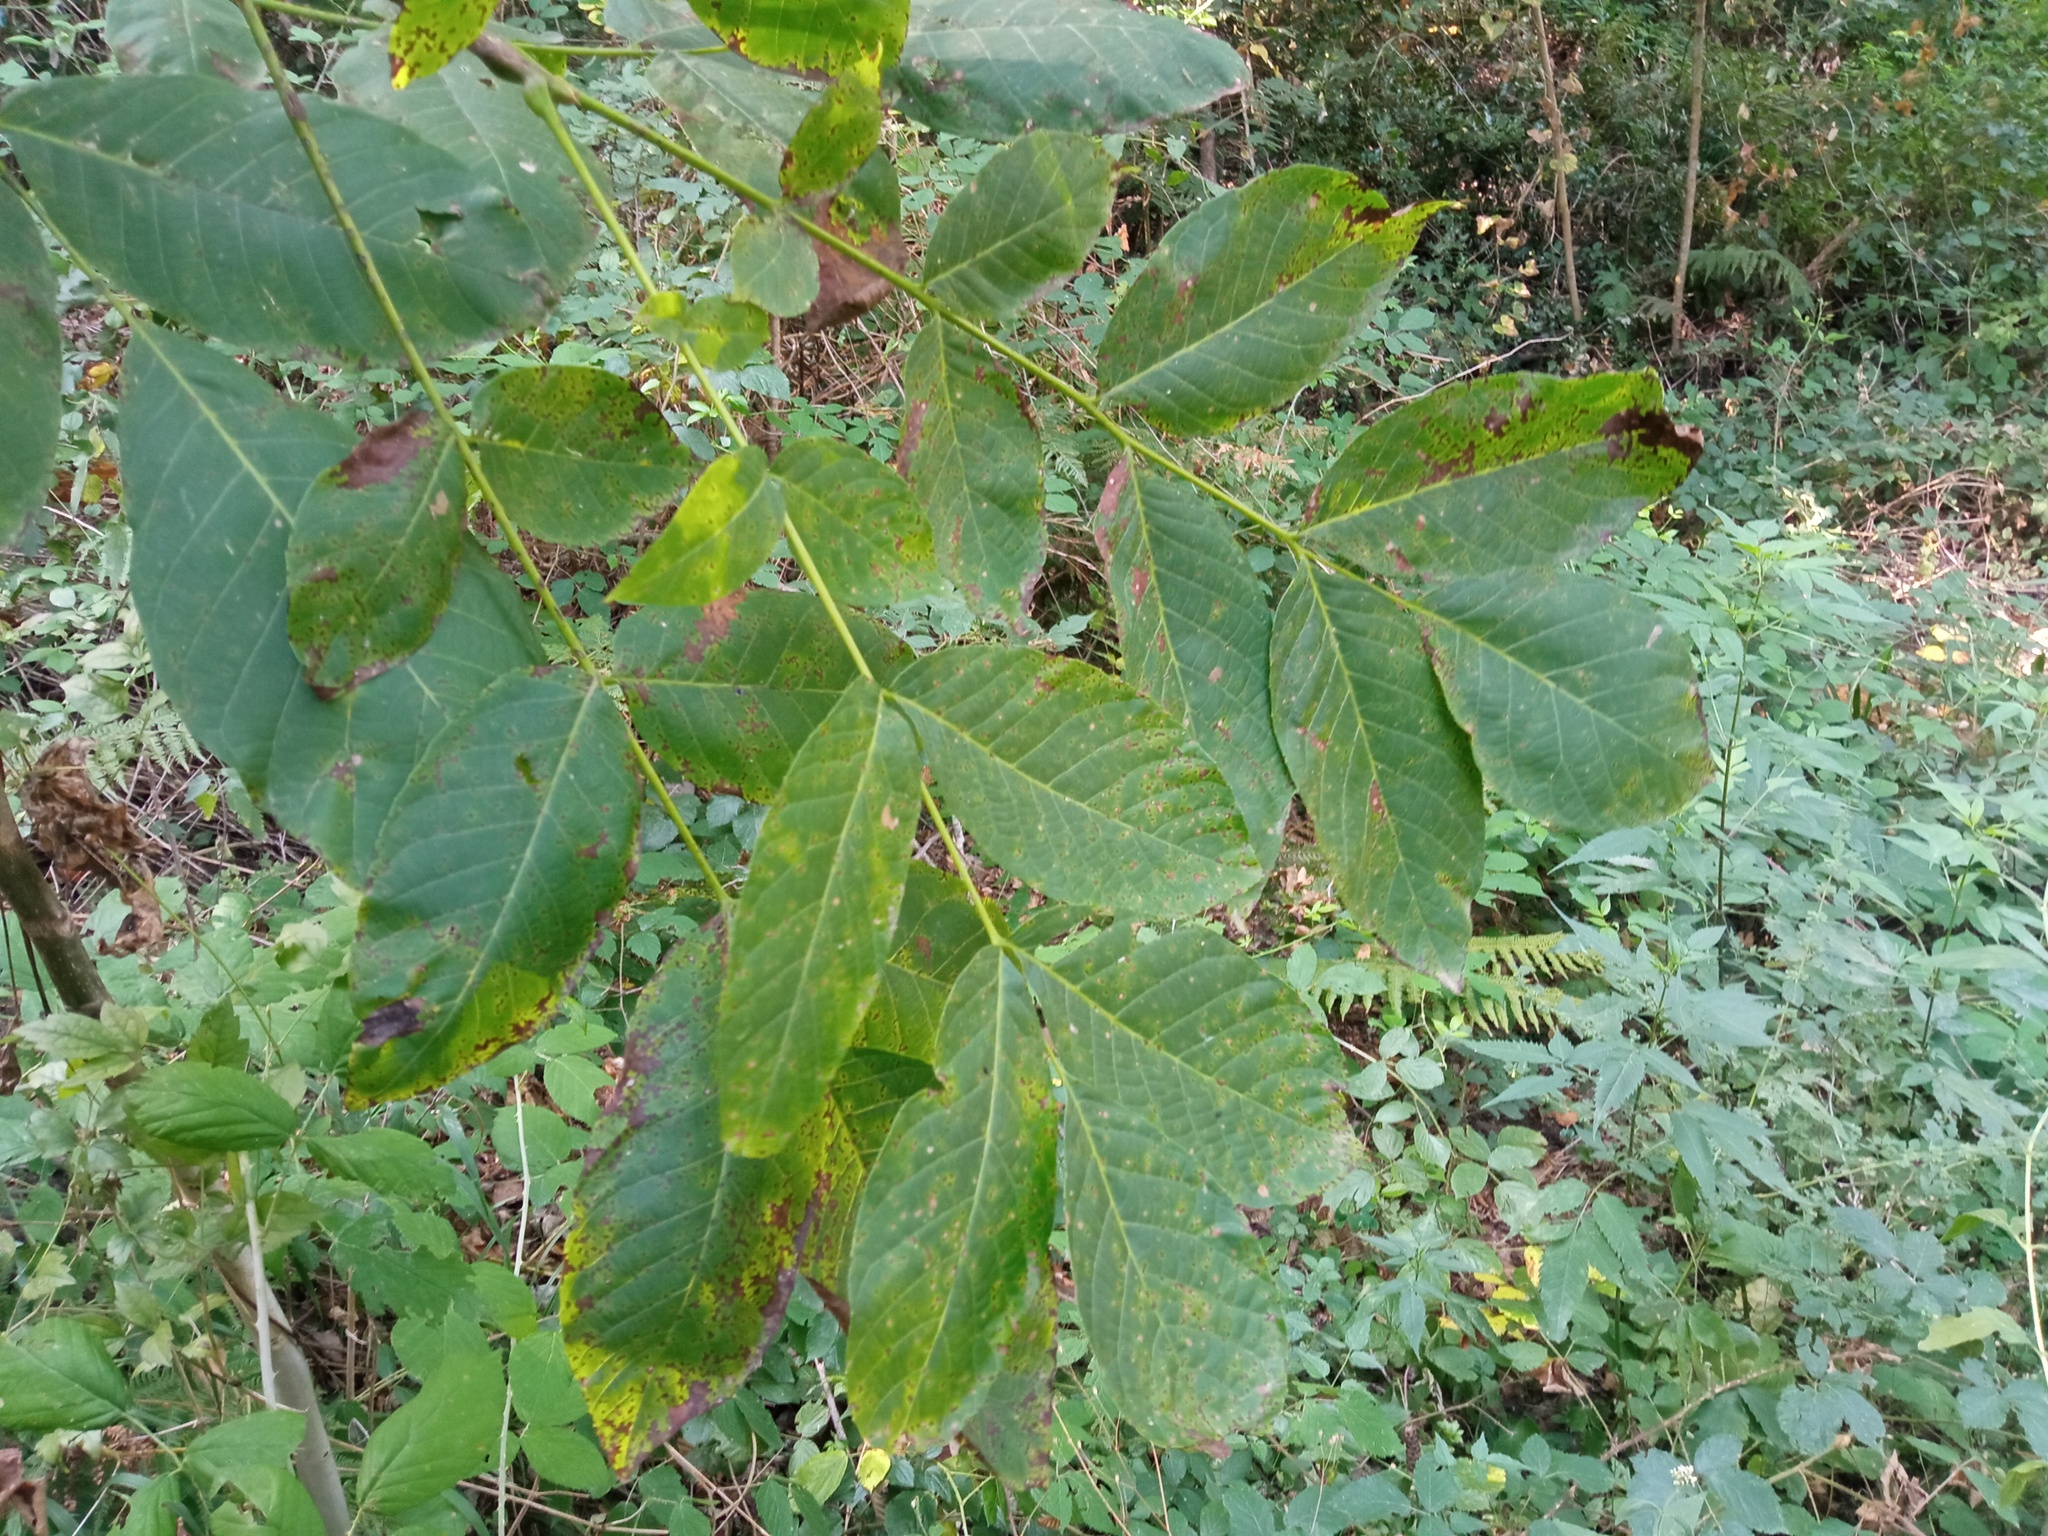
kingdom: Plantae
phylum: Tracheophyta
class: Magnoliopsida
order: Fagales
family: Juglandaceae
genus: Juglans
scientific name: Juglans regia
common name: Walnut
